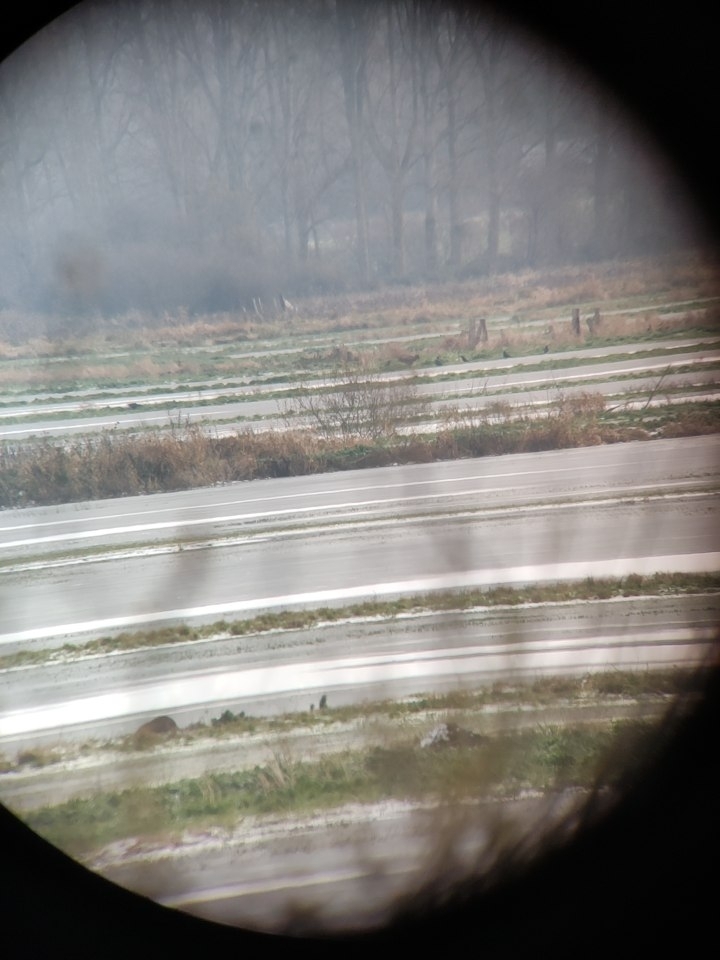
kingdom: Animalia
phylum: Chordata
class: Aves
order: Accipitriformes
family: Accipitridae
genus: Haliaeetus
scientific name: Haliaeetus albicilla
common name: White-tailed eagle
